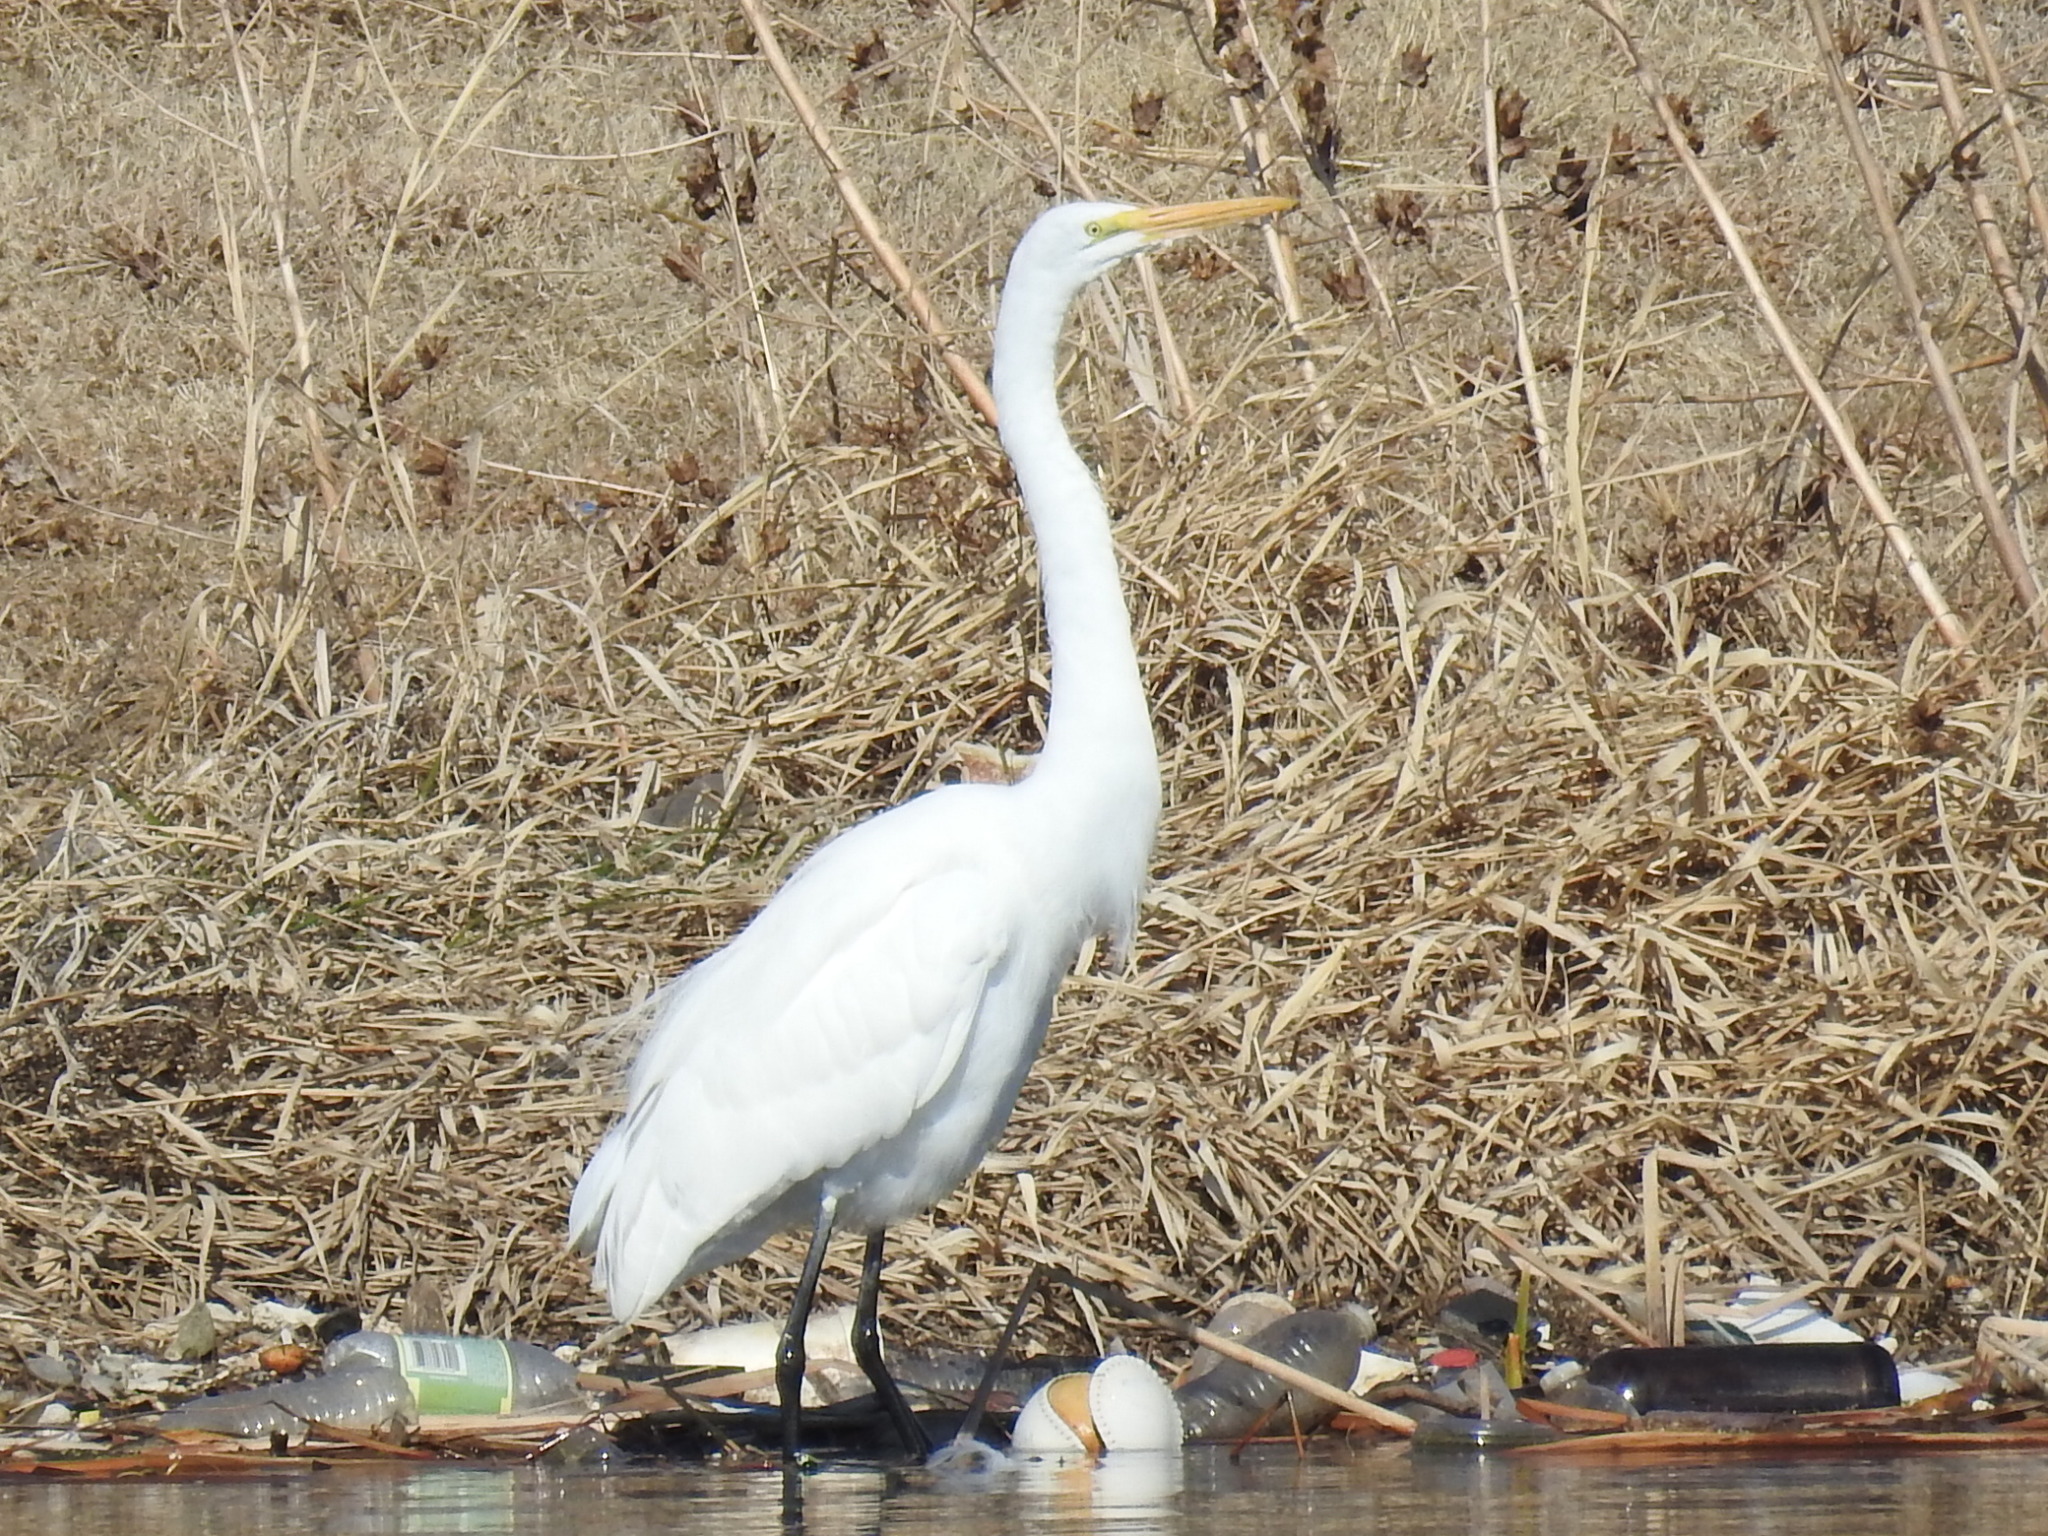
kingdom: Animalia
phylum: Chordata
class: Aves
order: Pelecaniformes
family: Ardeidae
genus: Ardea
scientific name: Ardea alba
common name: Great egret
